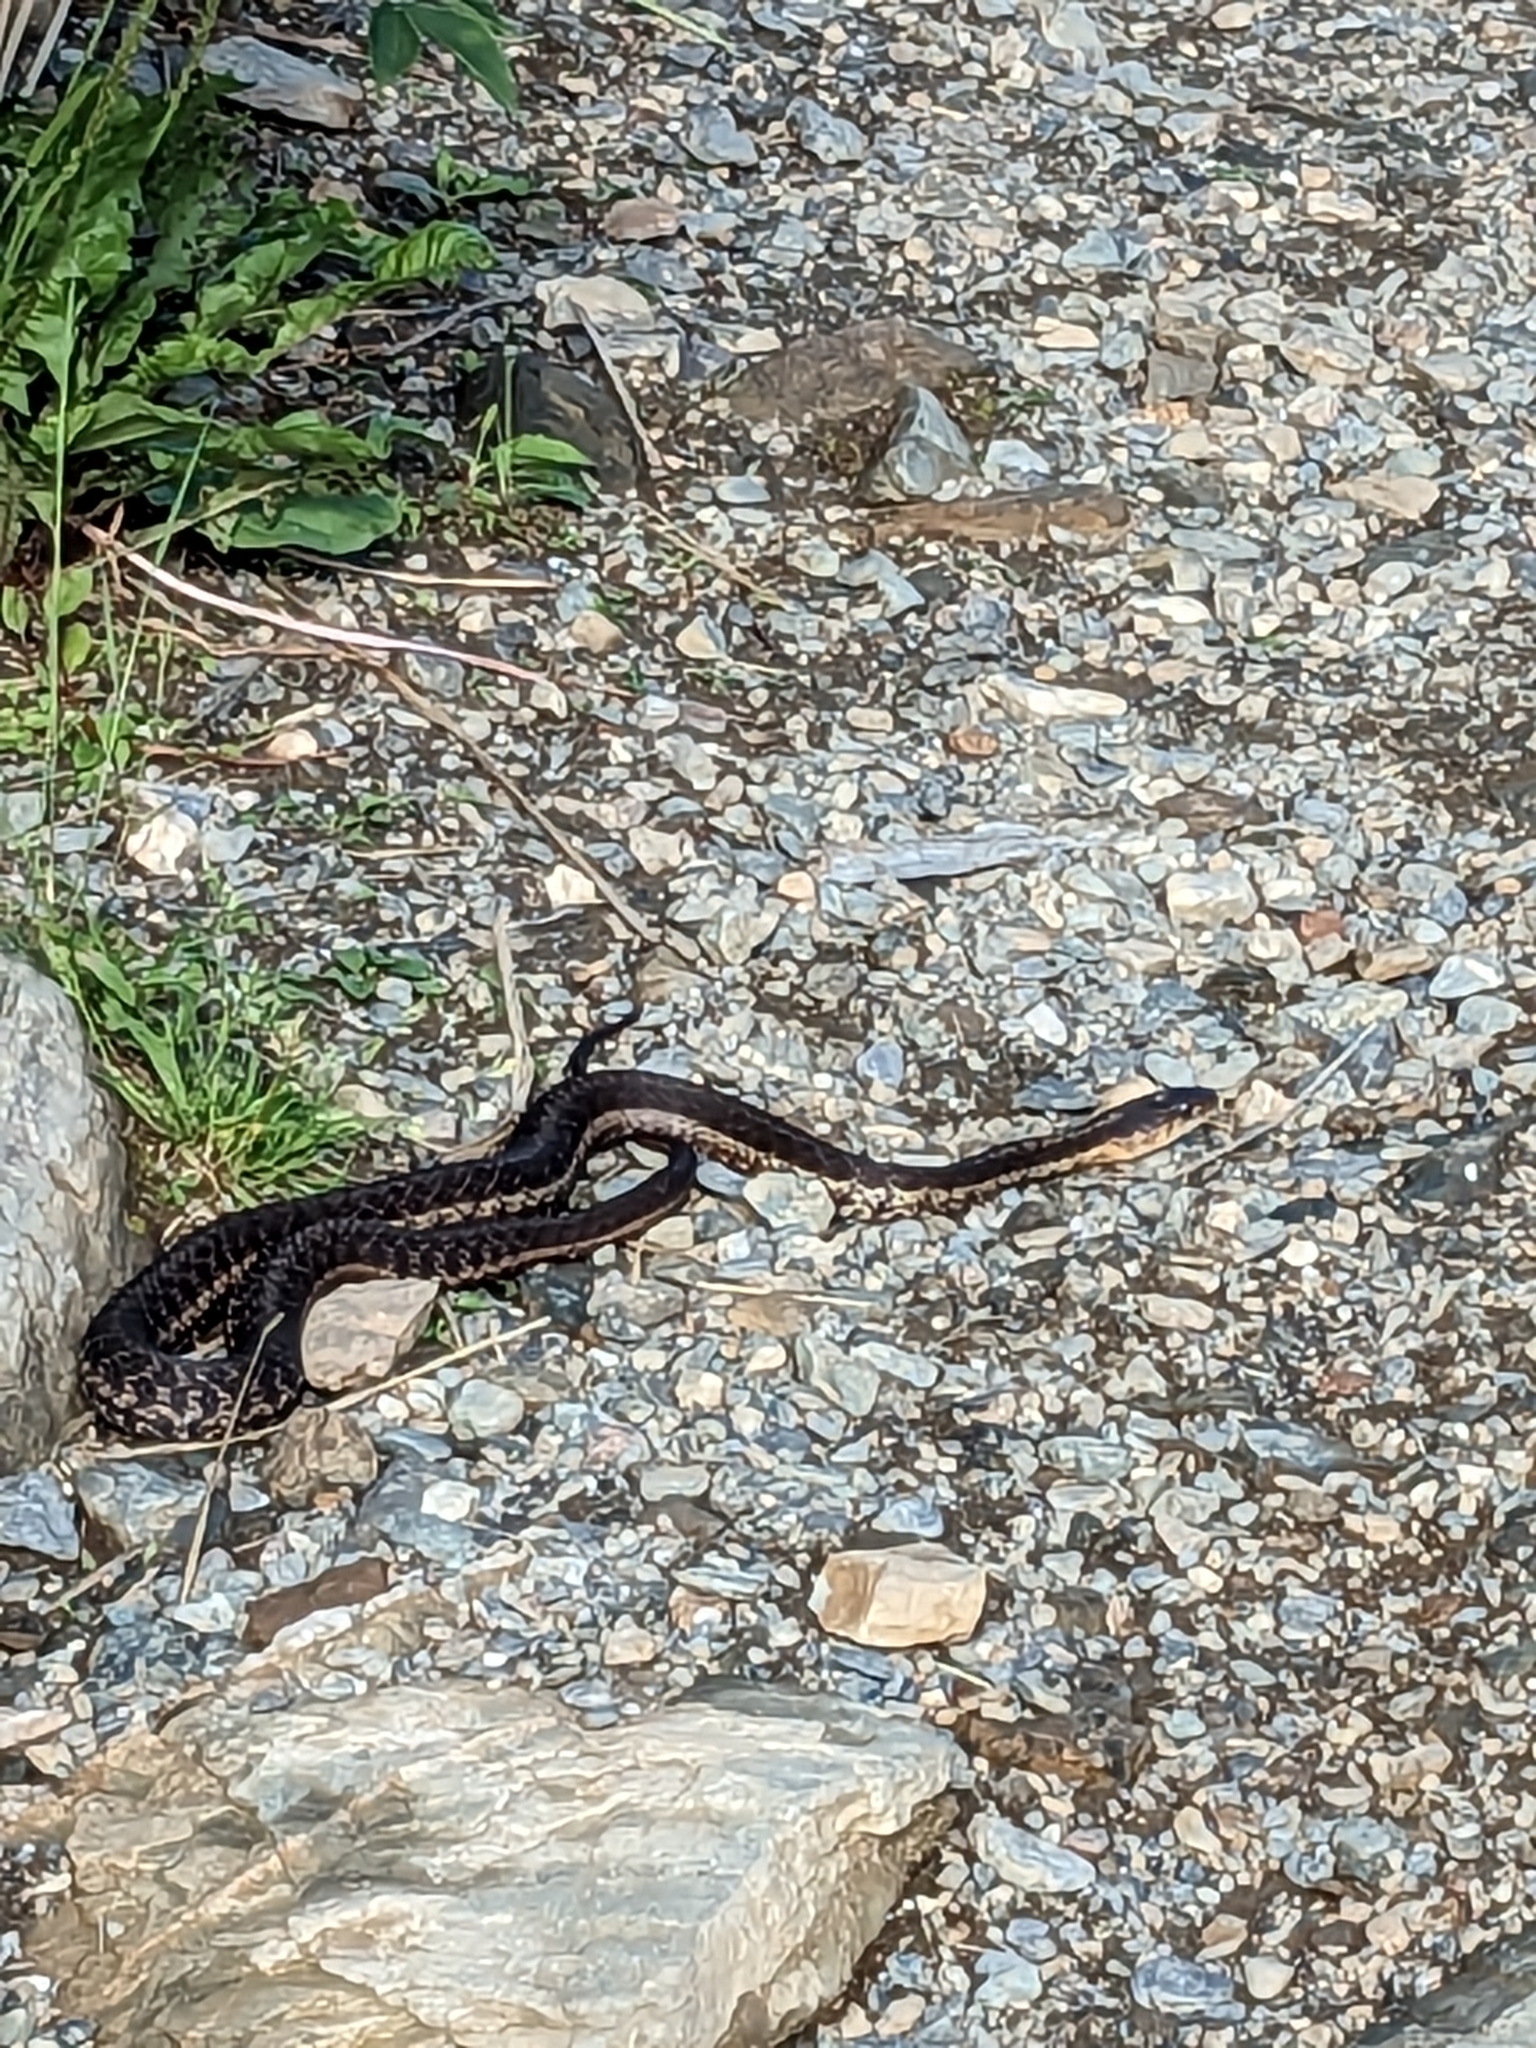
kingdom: Animalia
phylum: Chordata
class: Squamata
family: Colubridae
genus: Thamnophis
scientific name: Thamnophis sirtalis
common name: Common garter snake
